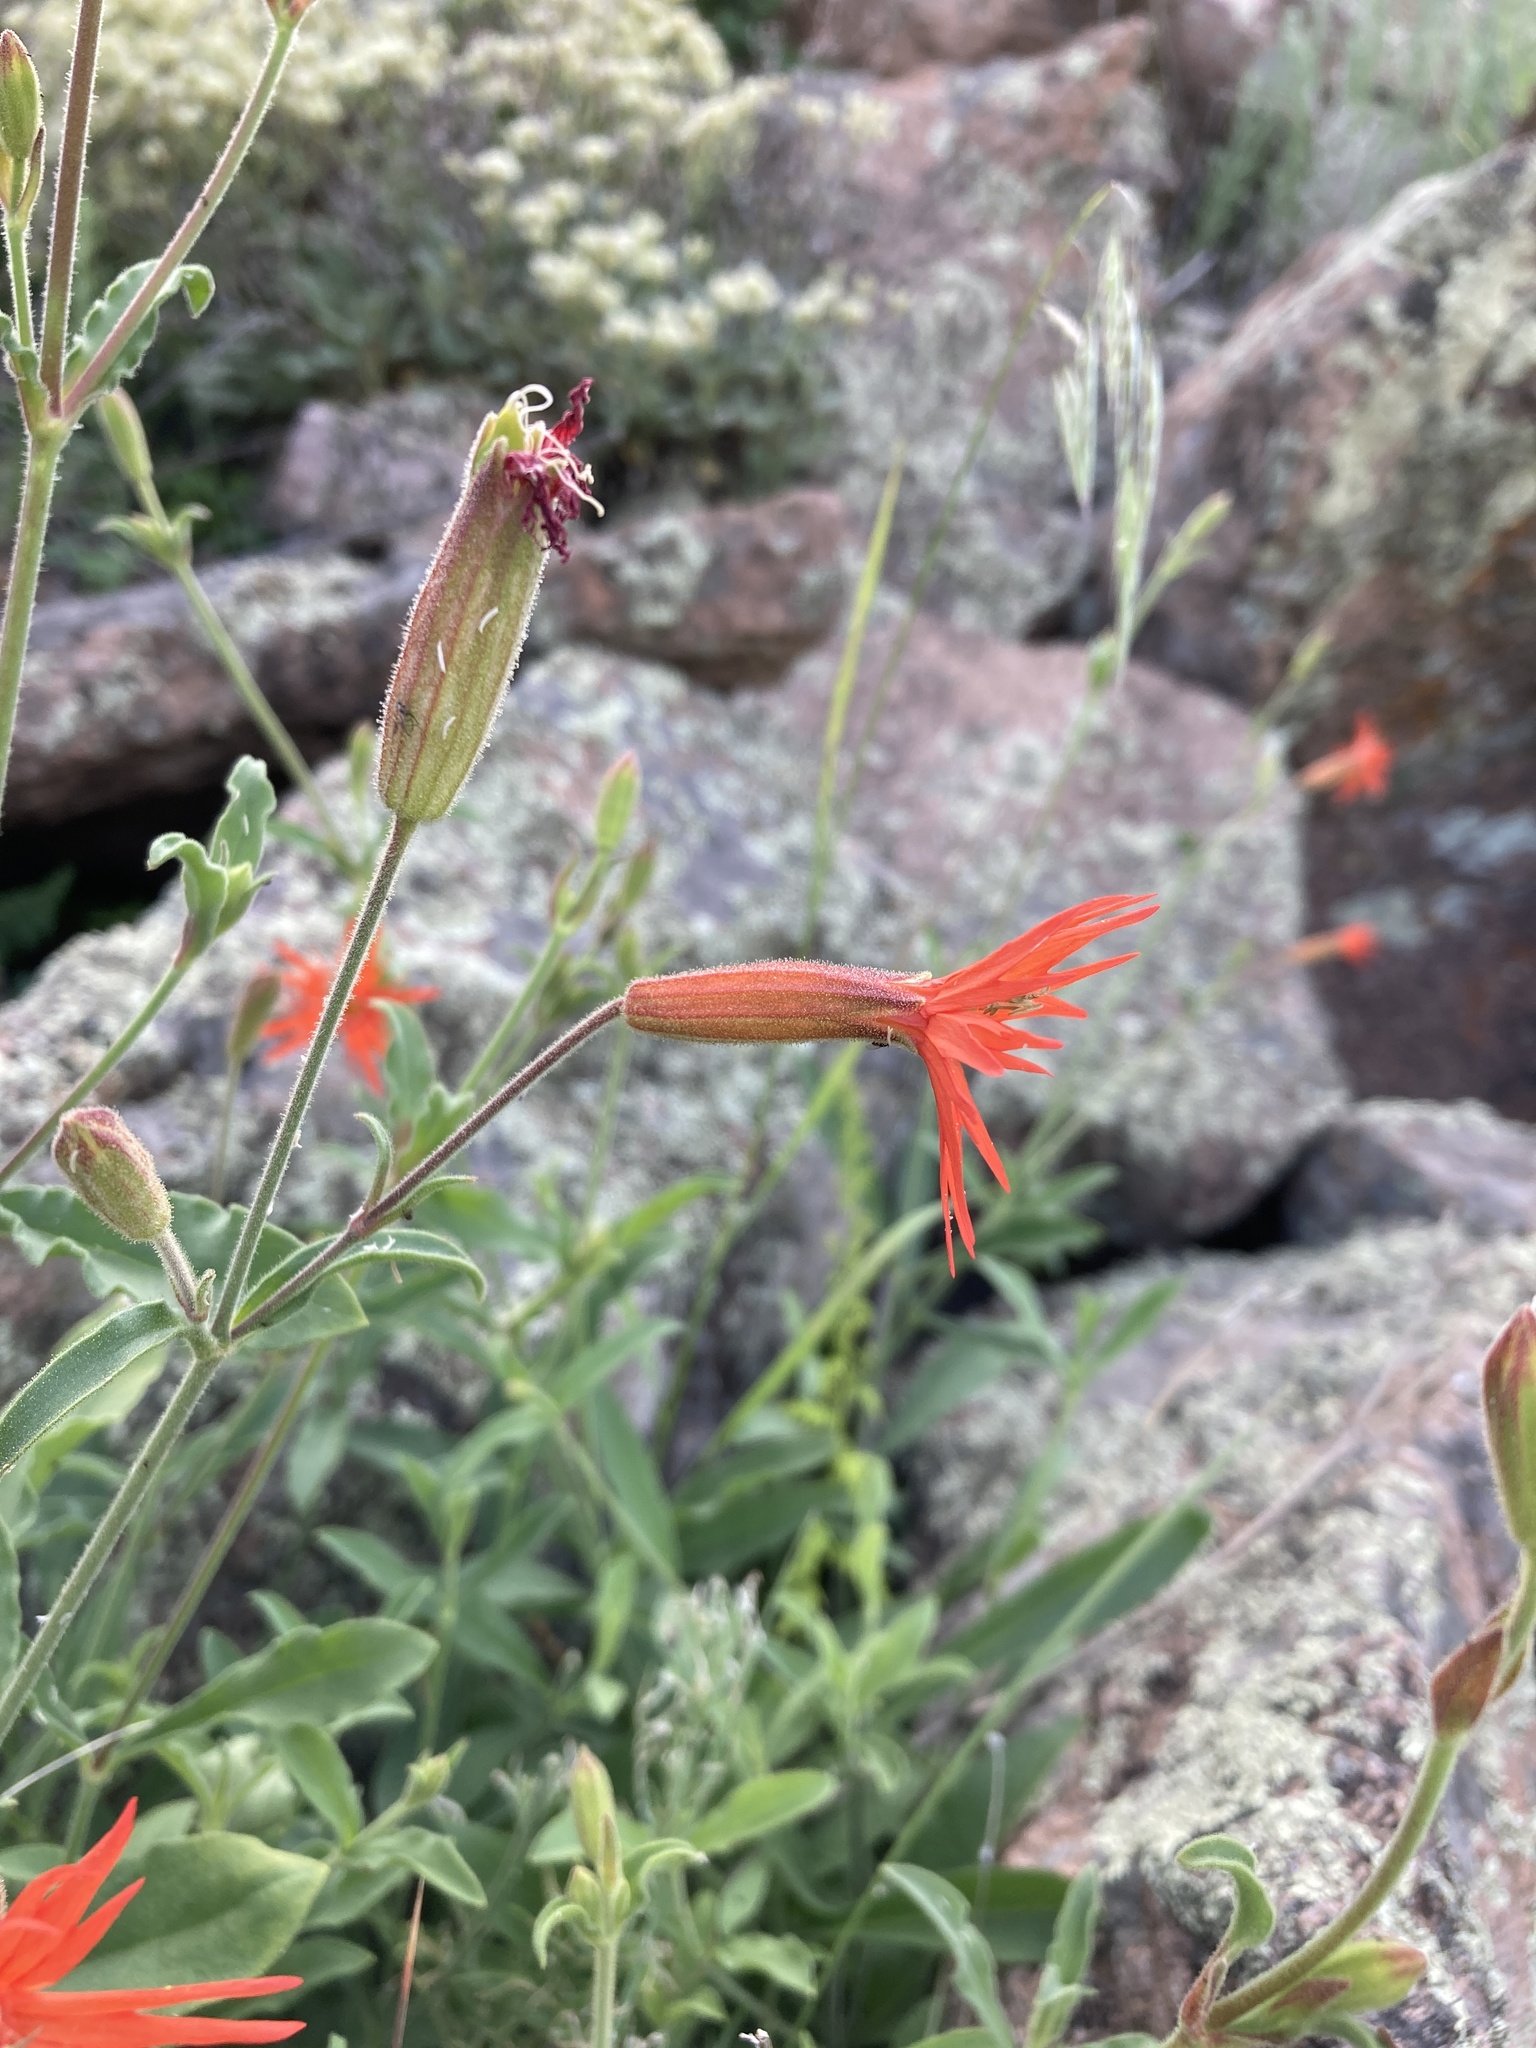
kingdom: Plantae
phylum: Tracheophyta
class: Magnoliopsida
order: Caryophyllales
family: Caryophyllaceae
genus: Silene
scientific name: Silene laciniata
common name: Indian-pink
